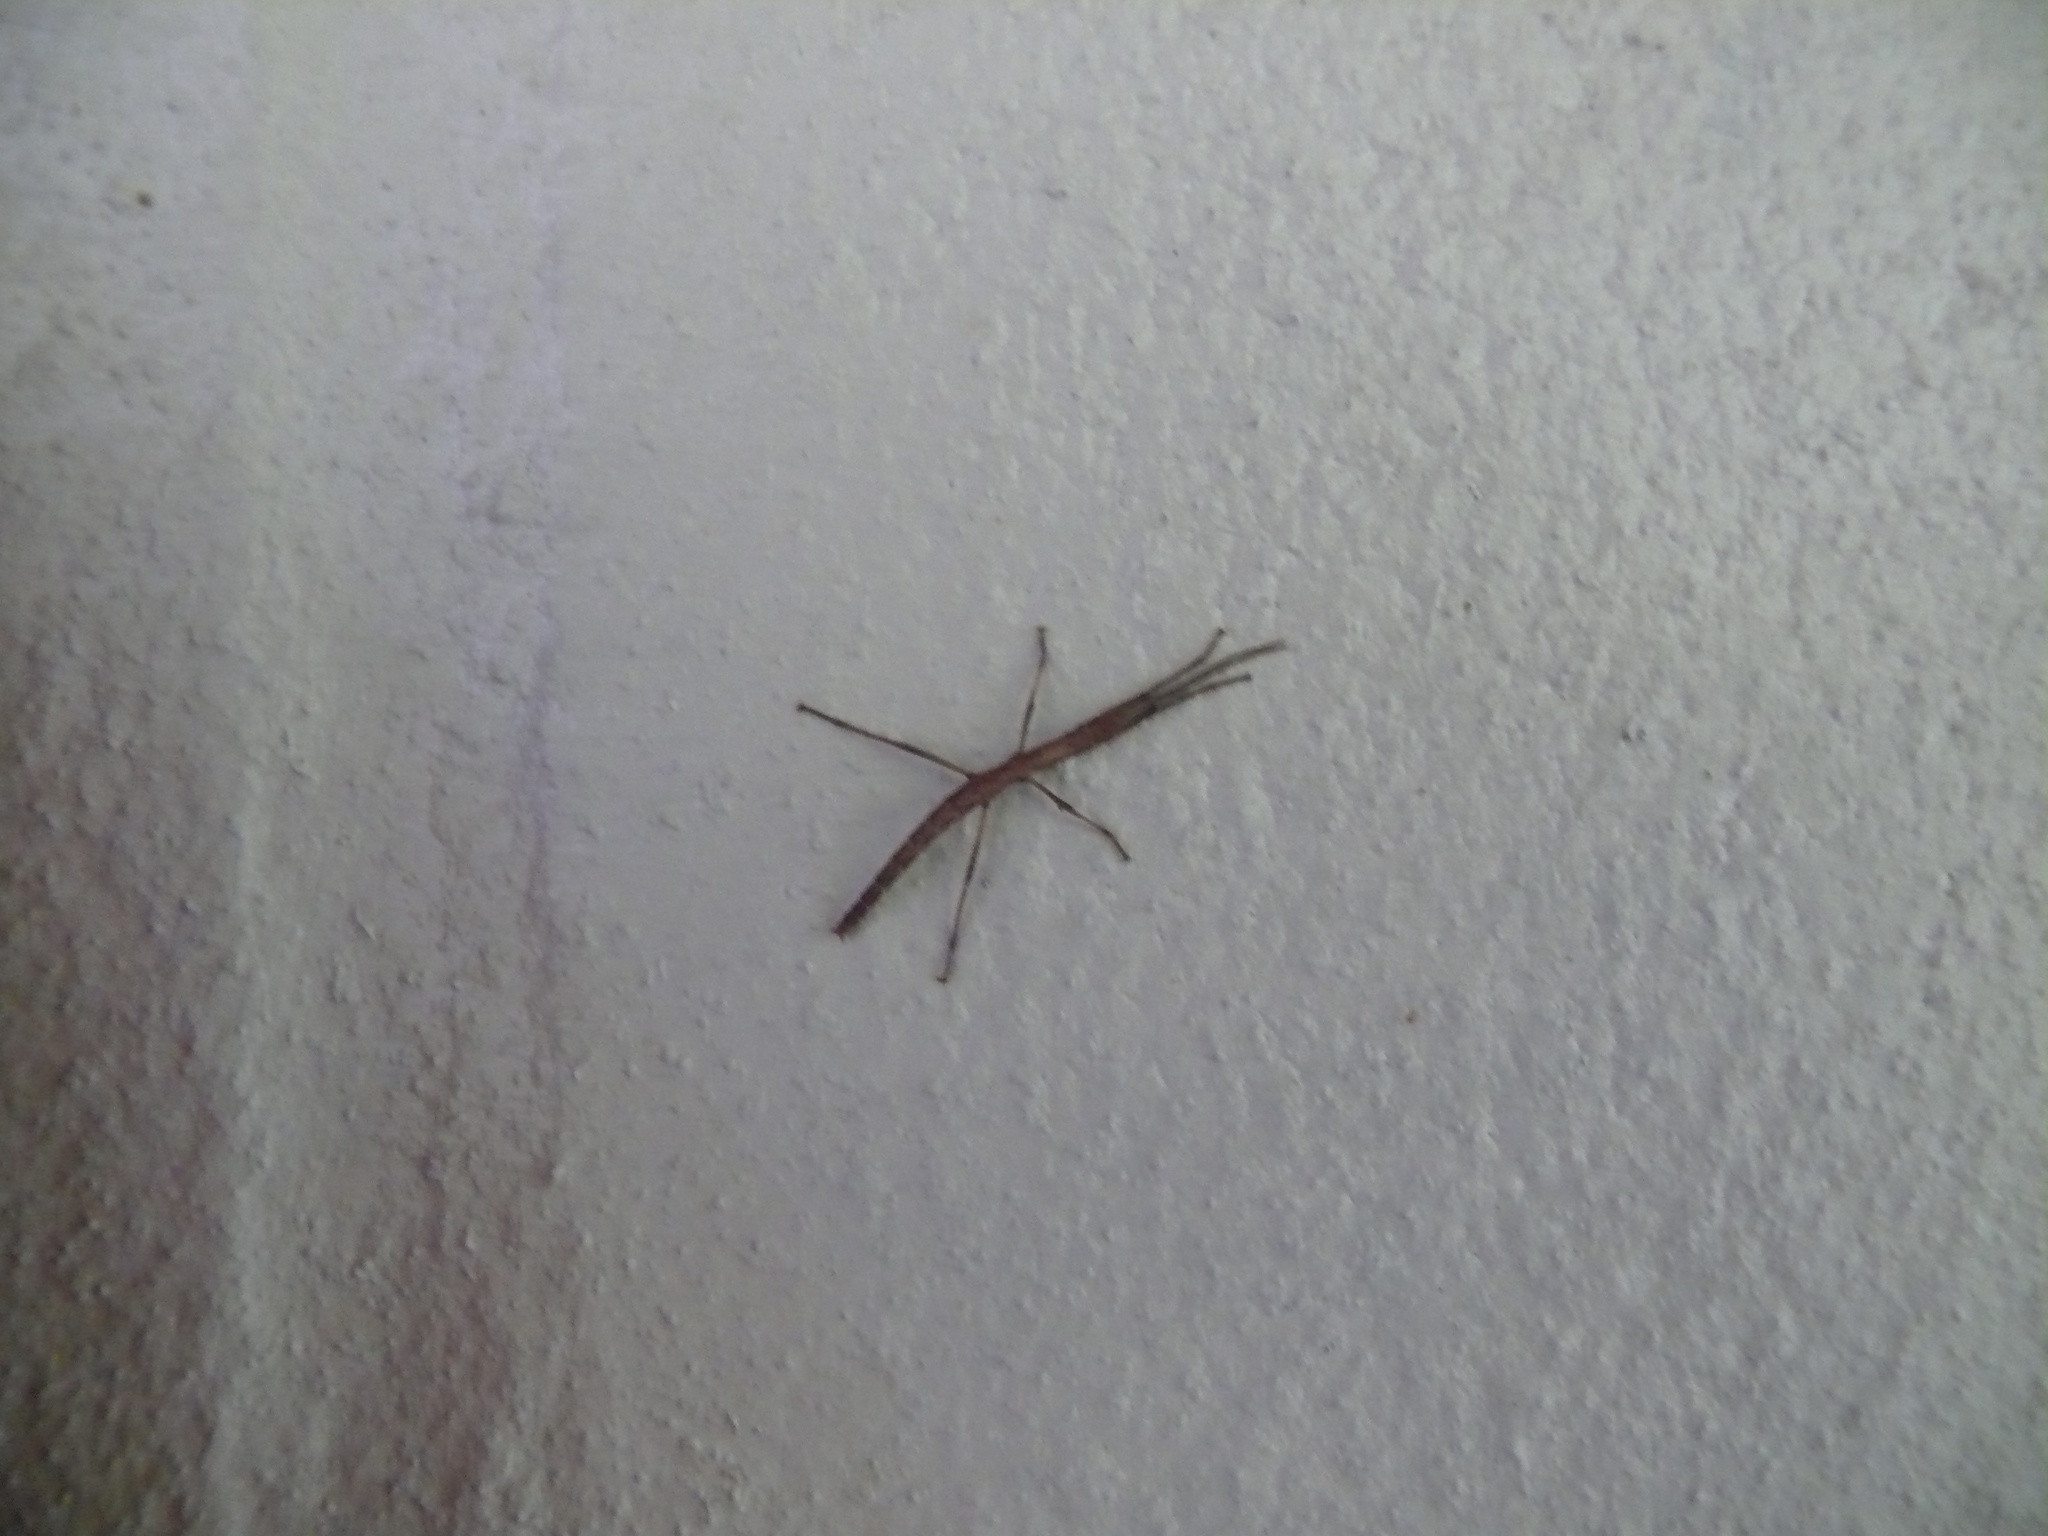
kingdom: Animalia
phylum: Arthropoda
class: Insecta
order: Phasmida
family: Pseudophasmatidae
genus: Anisomorpha
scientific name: Anisomorpha buprestoides
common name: Florida stick insect
